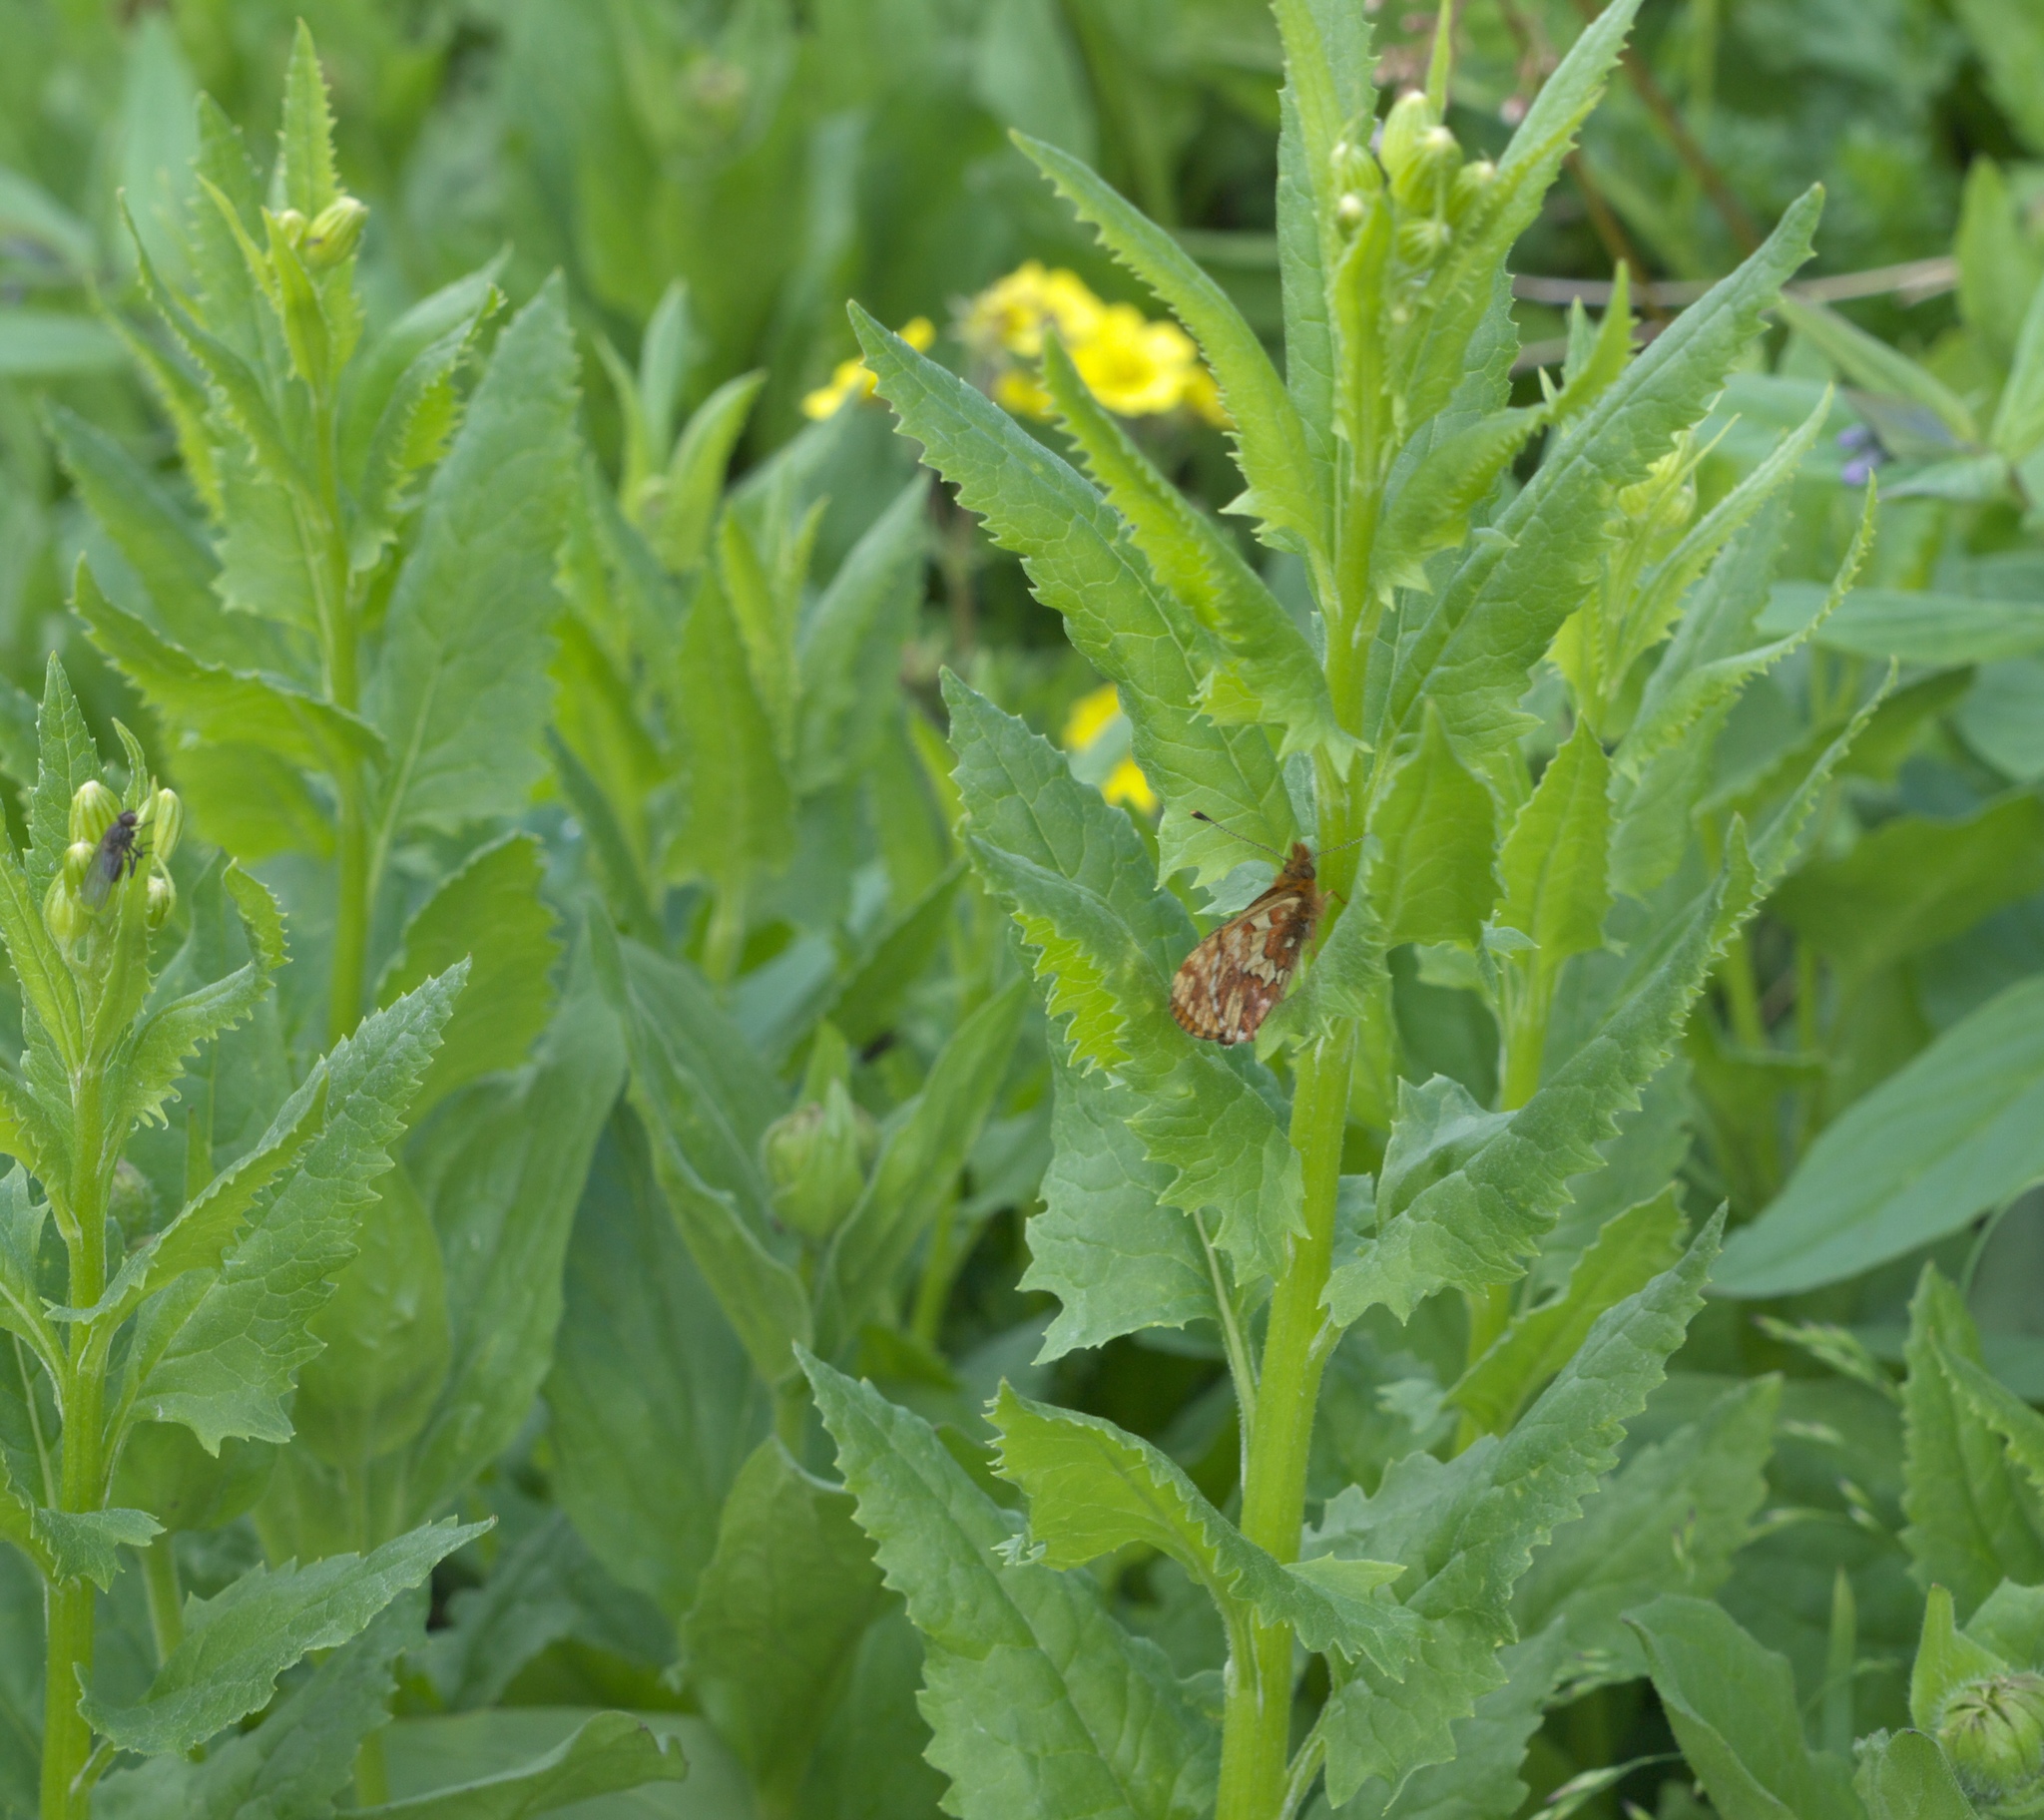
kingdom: Plantae
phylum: Tracheophyta
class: Magnoliopsida
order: Asterales
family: Asteraceae
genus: Senecio
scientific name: Senecio triangularis
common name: Arrowleaf butterweed
